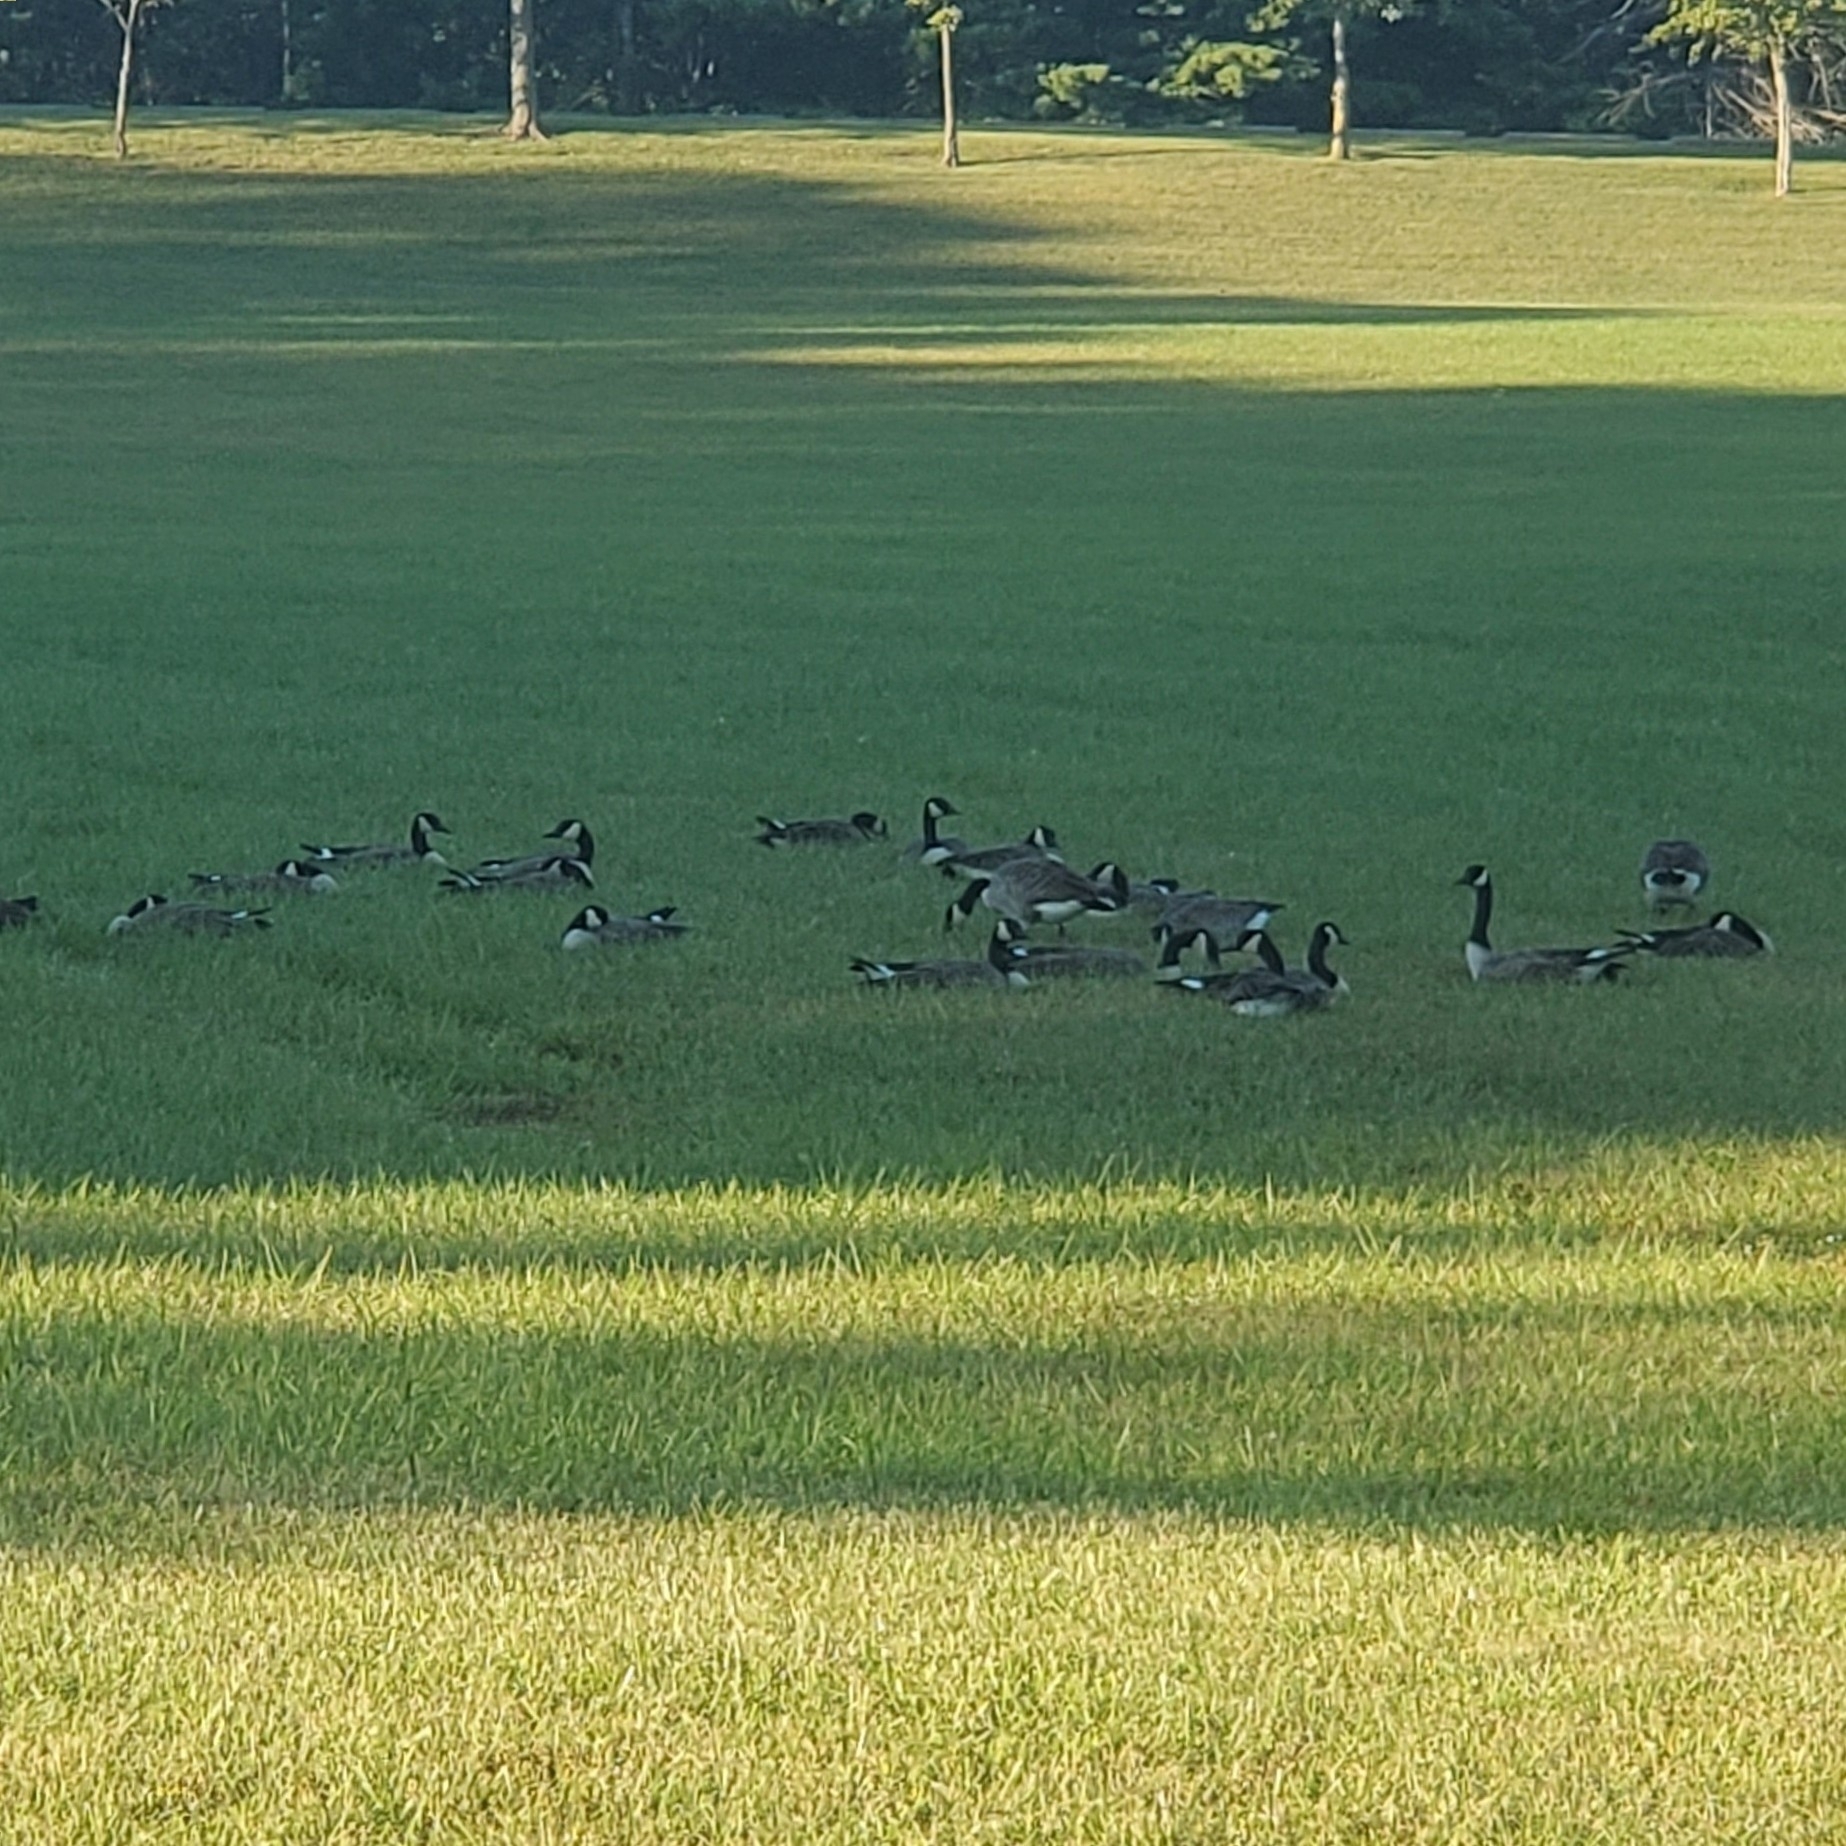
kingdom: Animalia
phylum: Chordata
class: Aves
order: Anseriformes
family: Anatidae
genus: Branta
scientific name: Branta canadensis
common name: Canada goose
